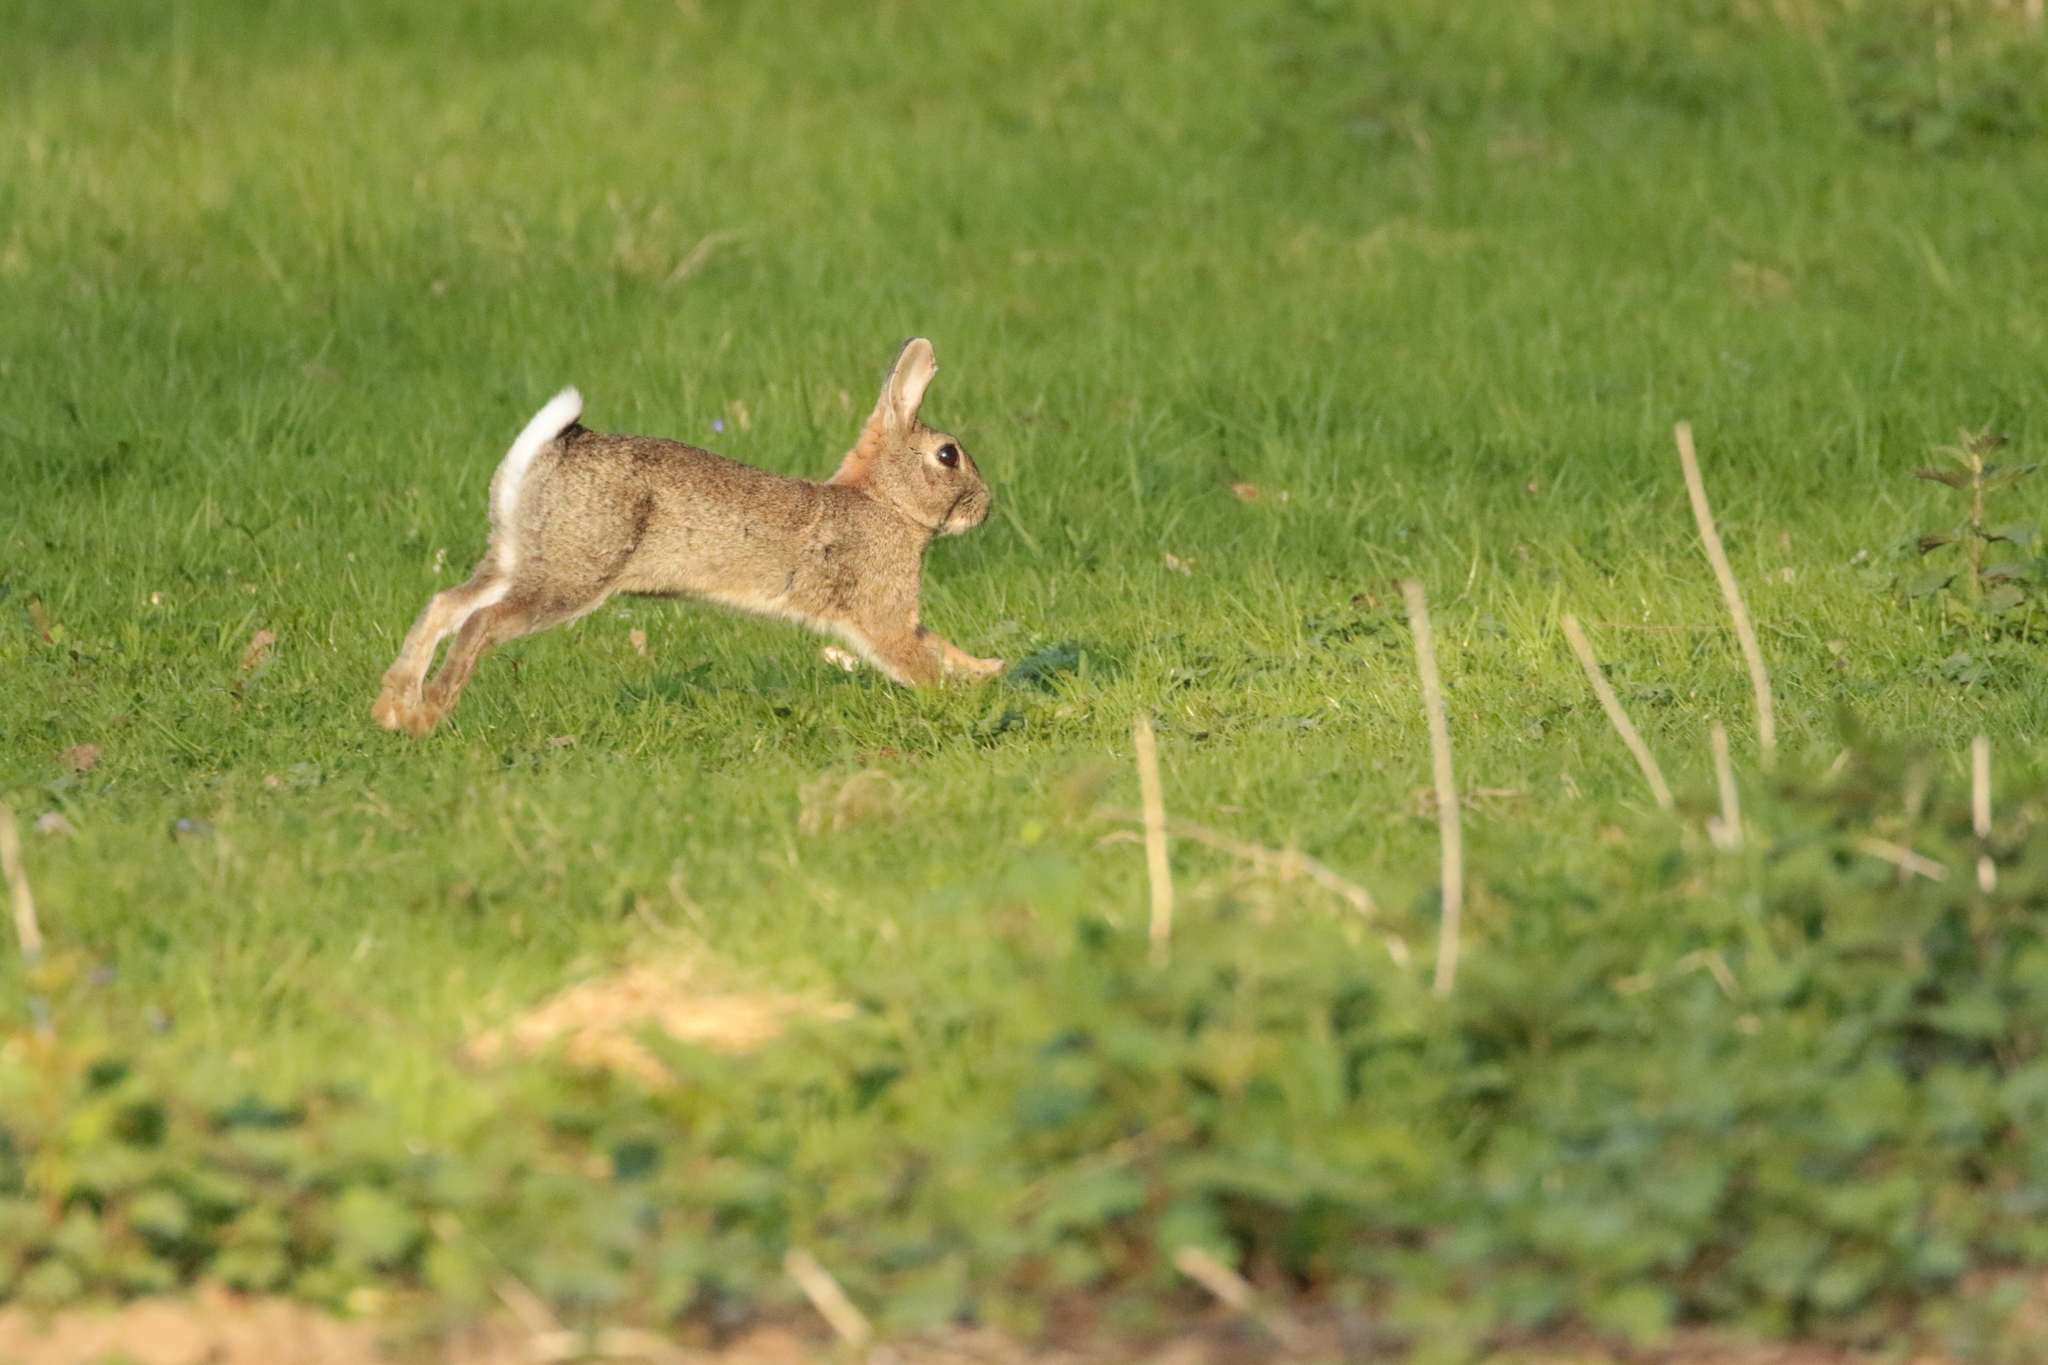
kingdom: Animalia
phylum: Chordata
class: Mammalia
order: Lagomorpha
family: Leporidae
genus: Oryctolagus
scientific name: Oryctolagus cuniculus
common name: European rabbit
